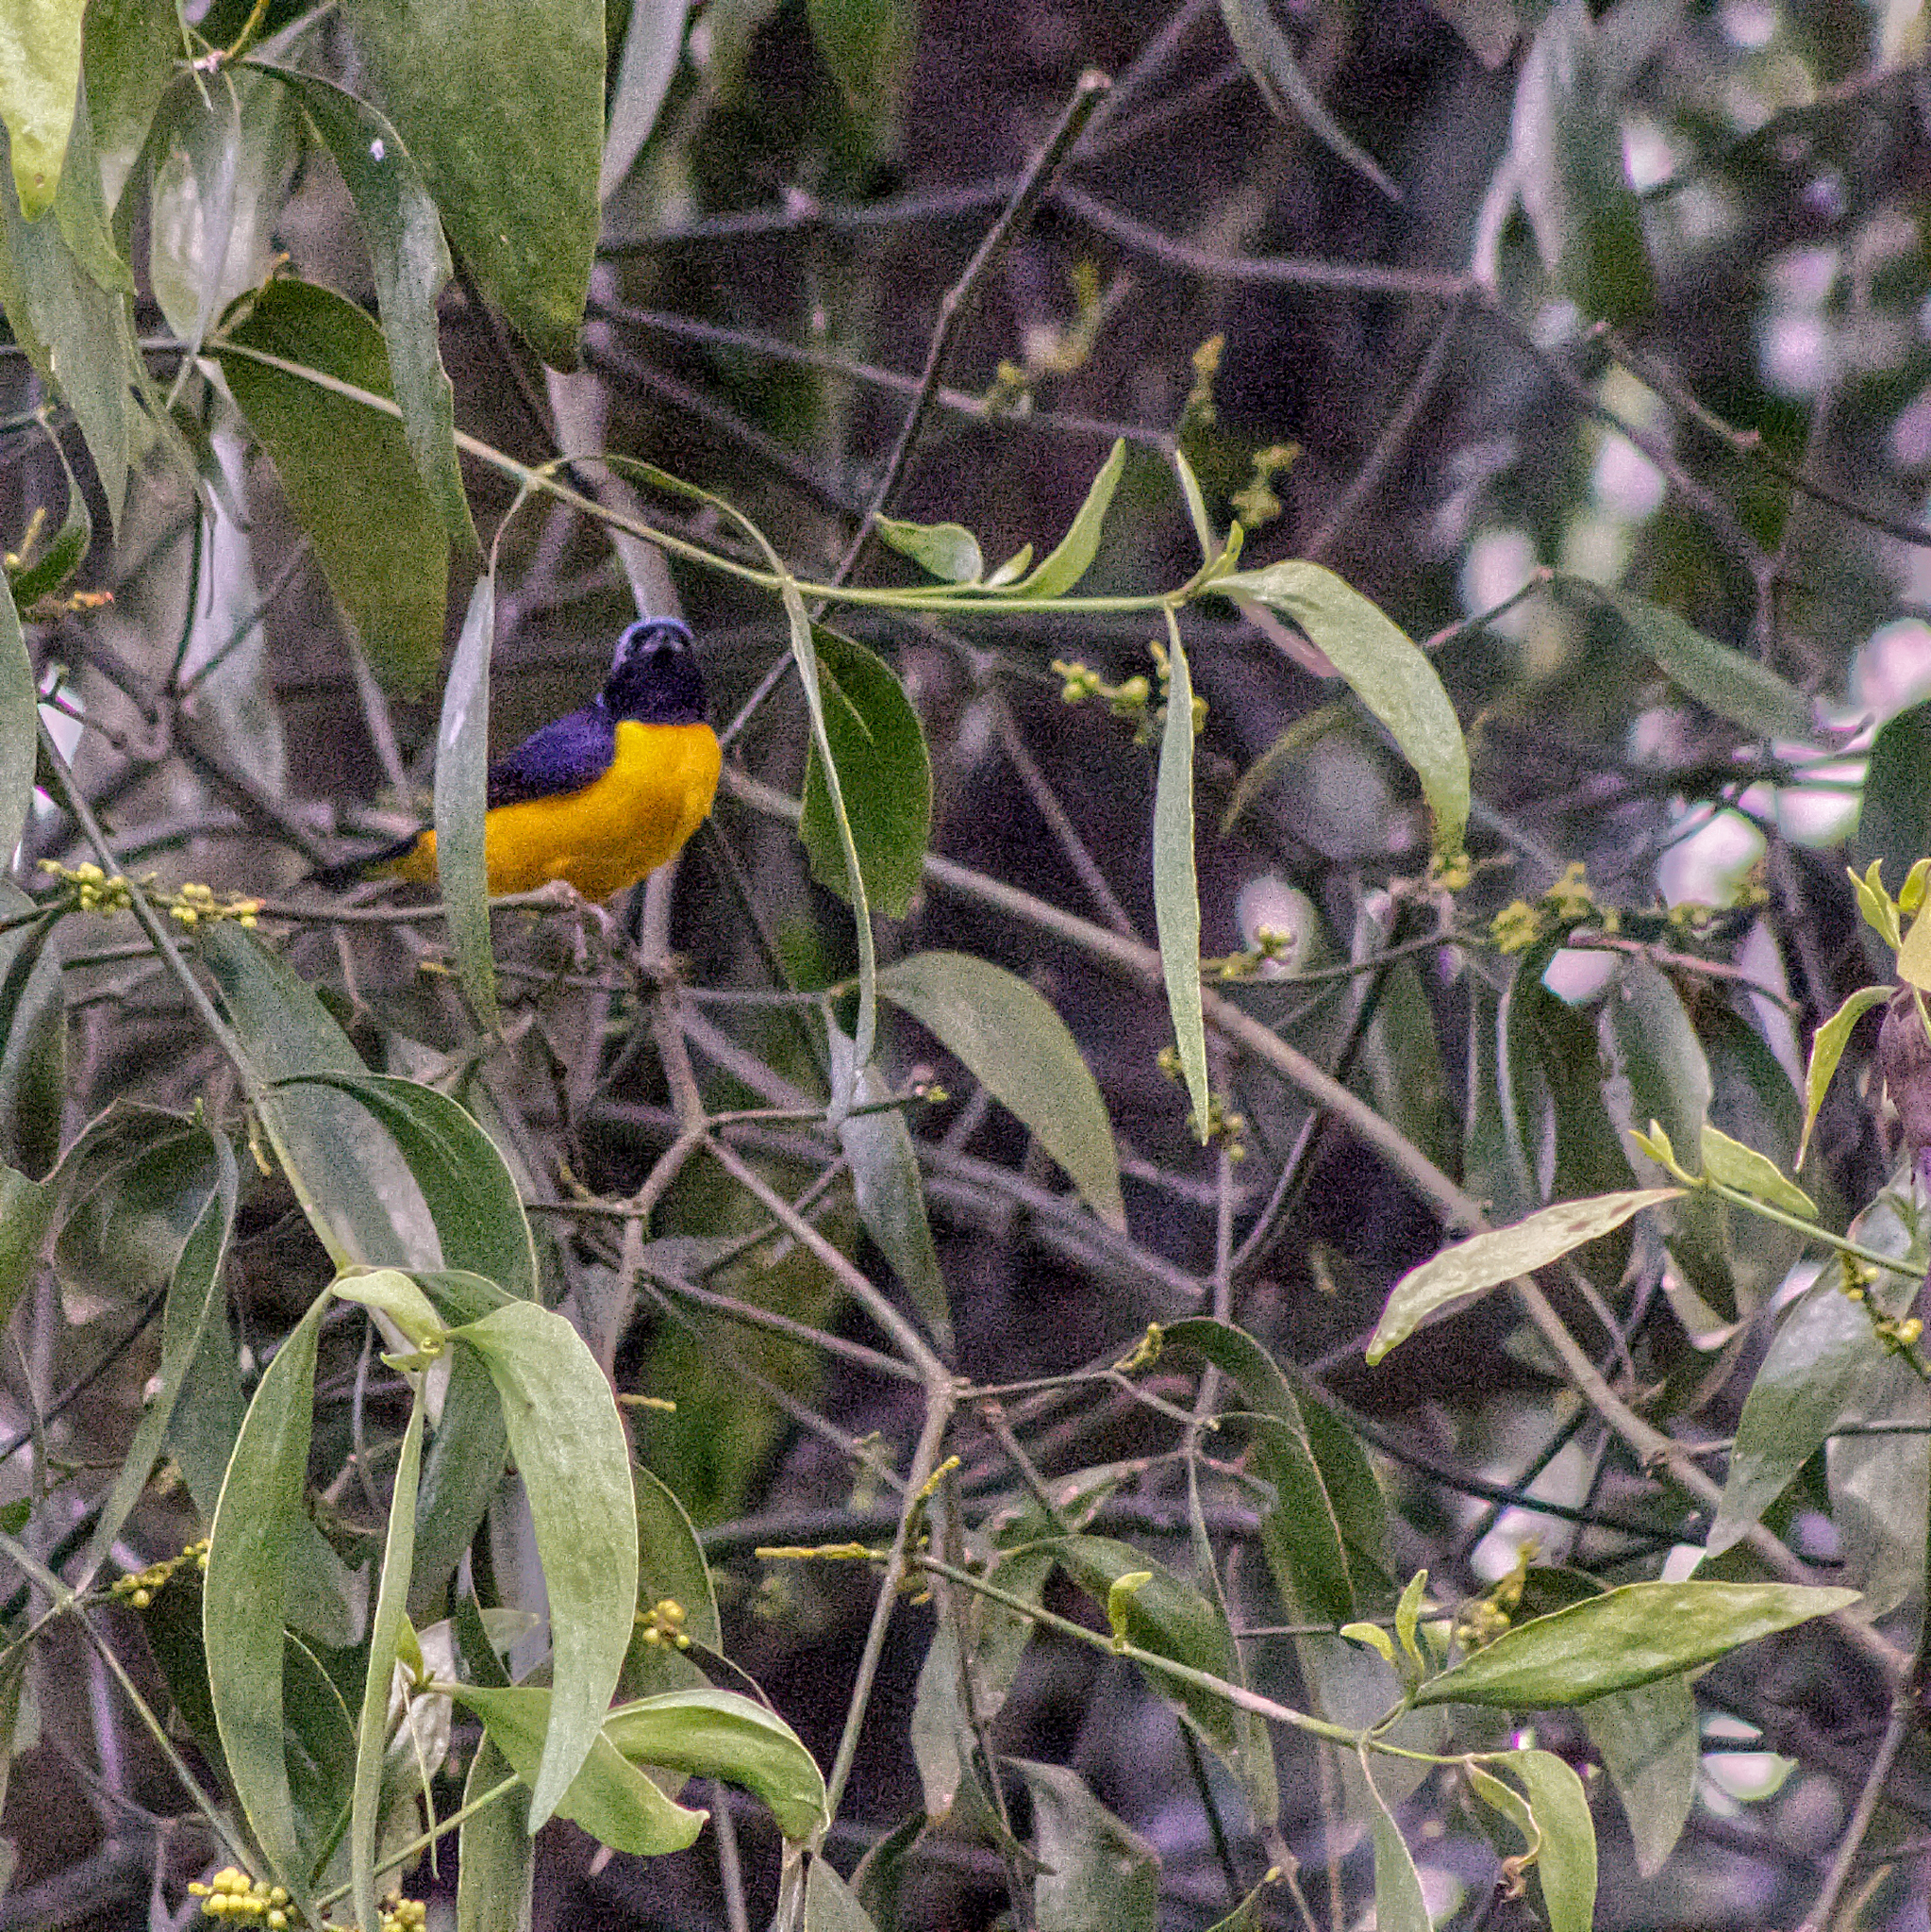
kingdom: Animalia
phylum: Chordata
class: Aves
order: Passeriformes
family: Fringillidae
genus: Euphonia
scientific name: Euphonia cyanocephala
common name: Golden-rumped euphonia
